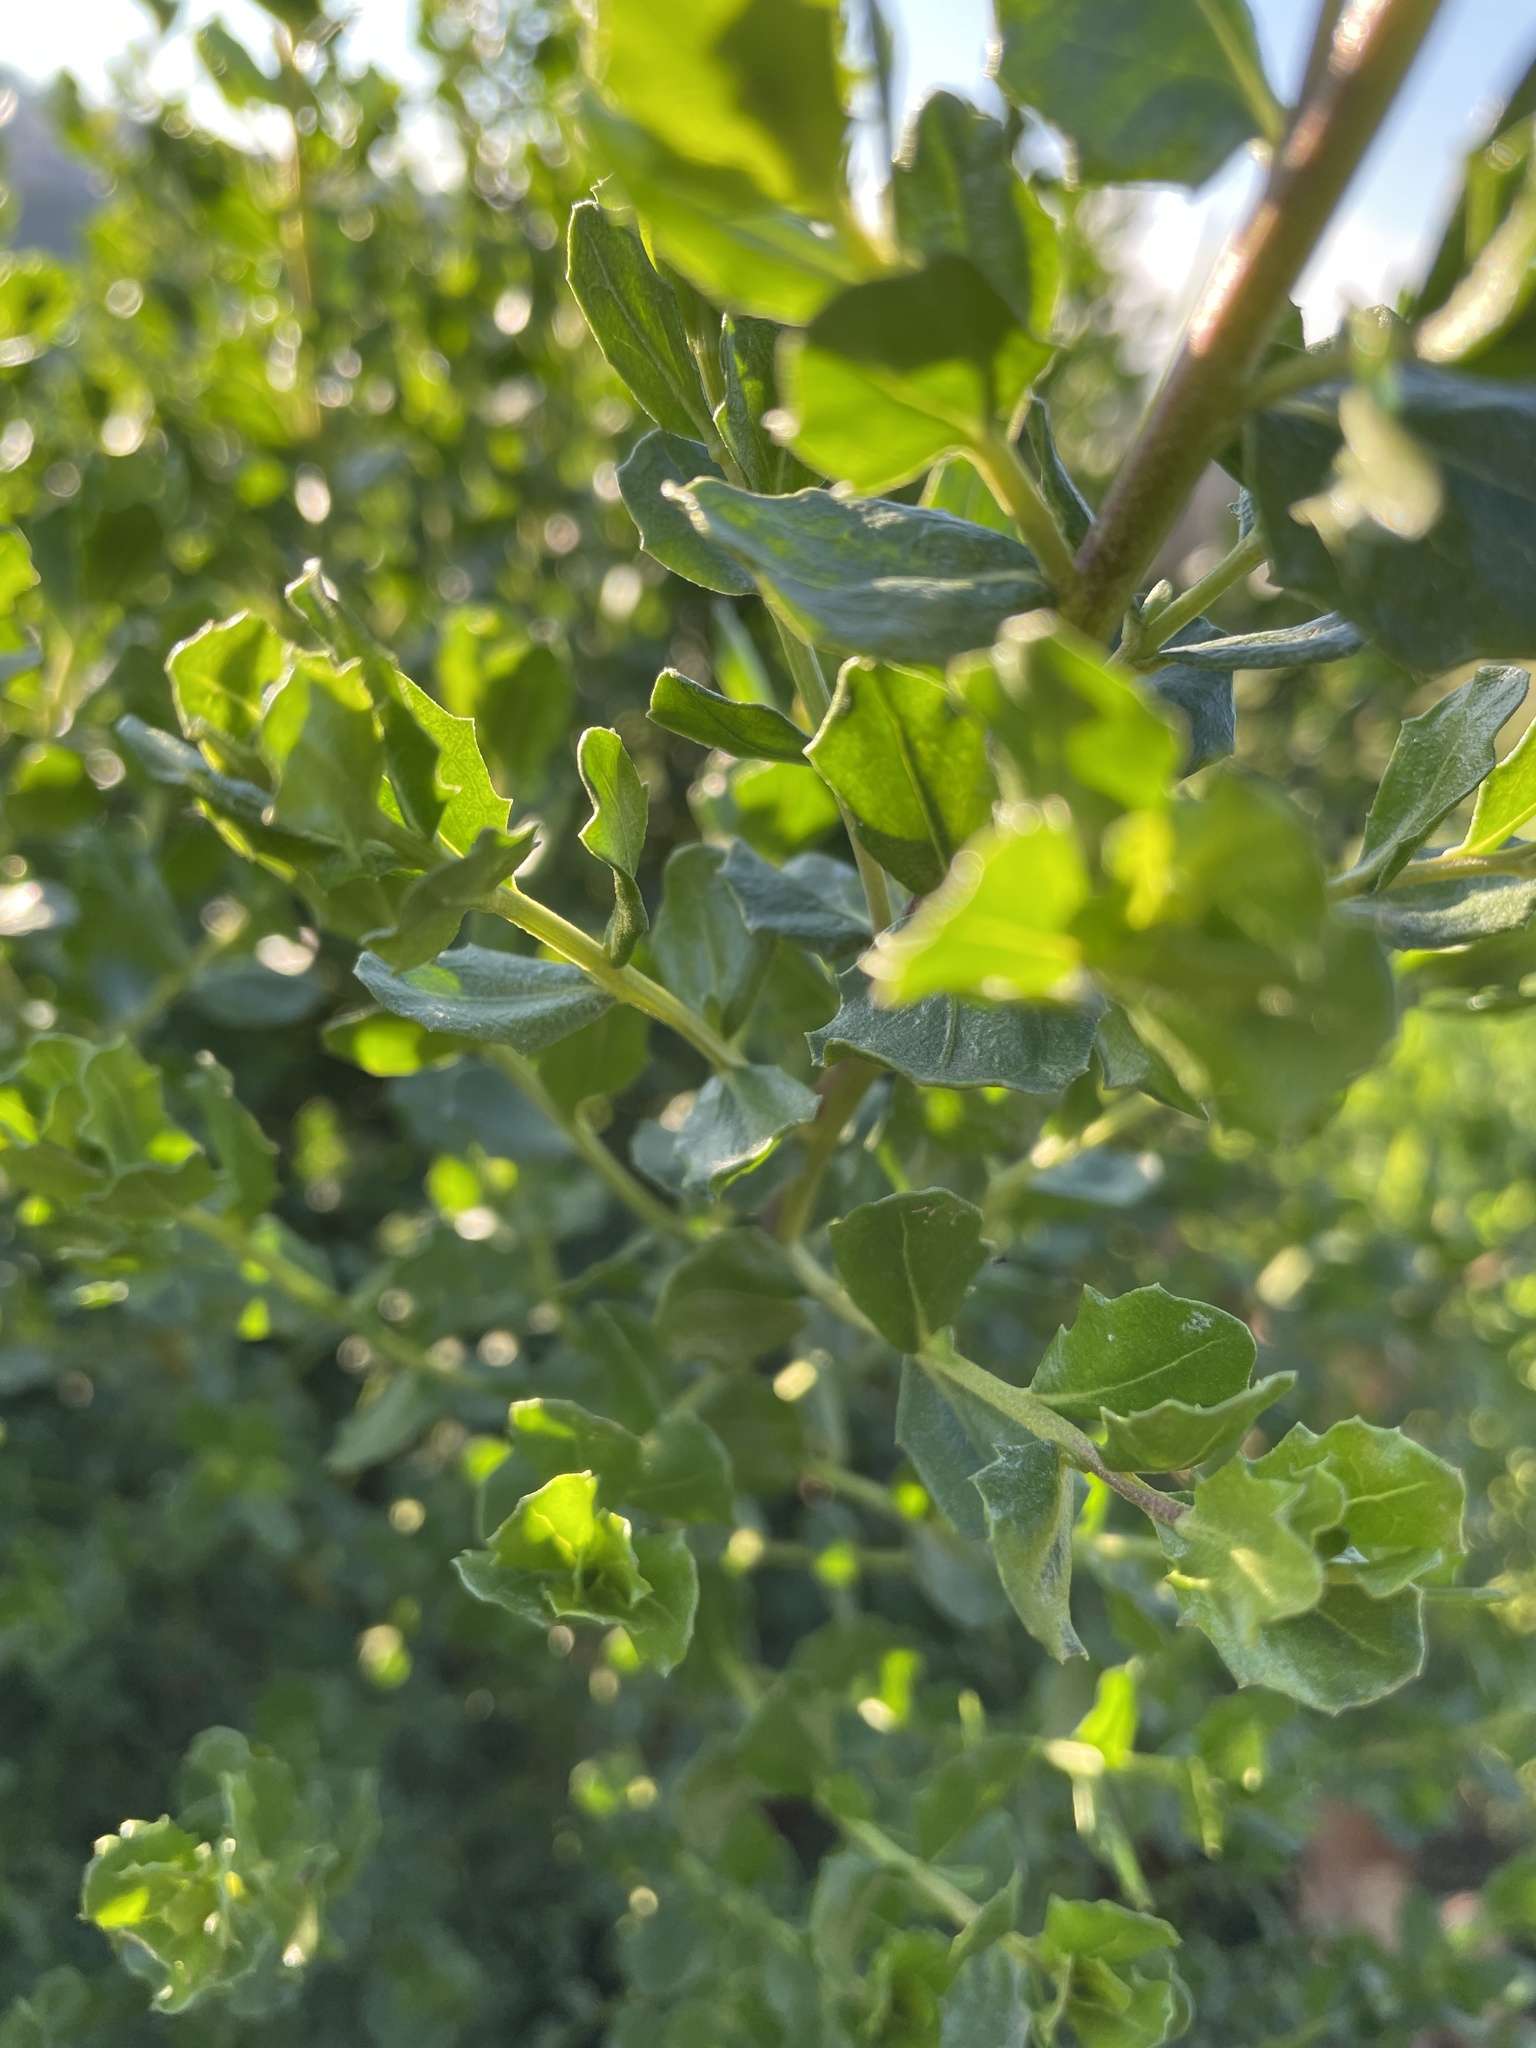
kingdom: Plantae
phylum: Tracheophyta
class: Magnoliopsida
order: Asterales
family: Asteraceae
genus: Baccharis
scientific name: Baccharis pilularis
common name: Coyotebrush
